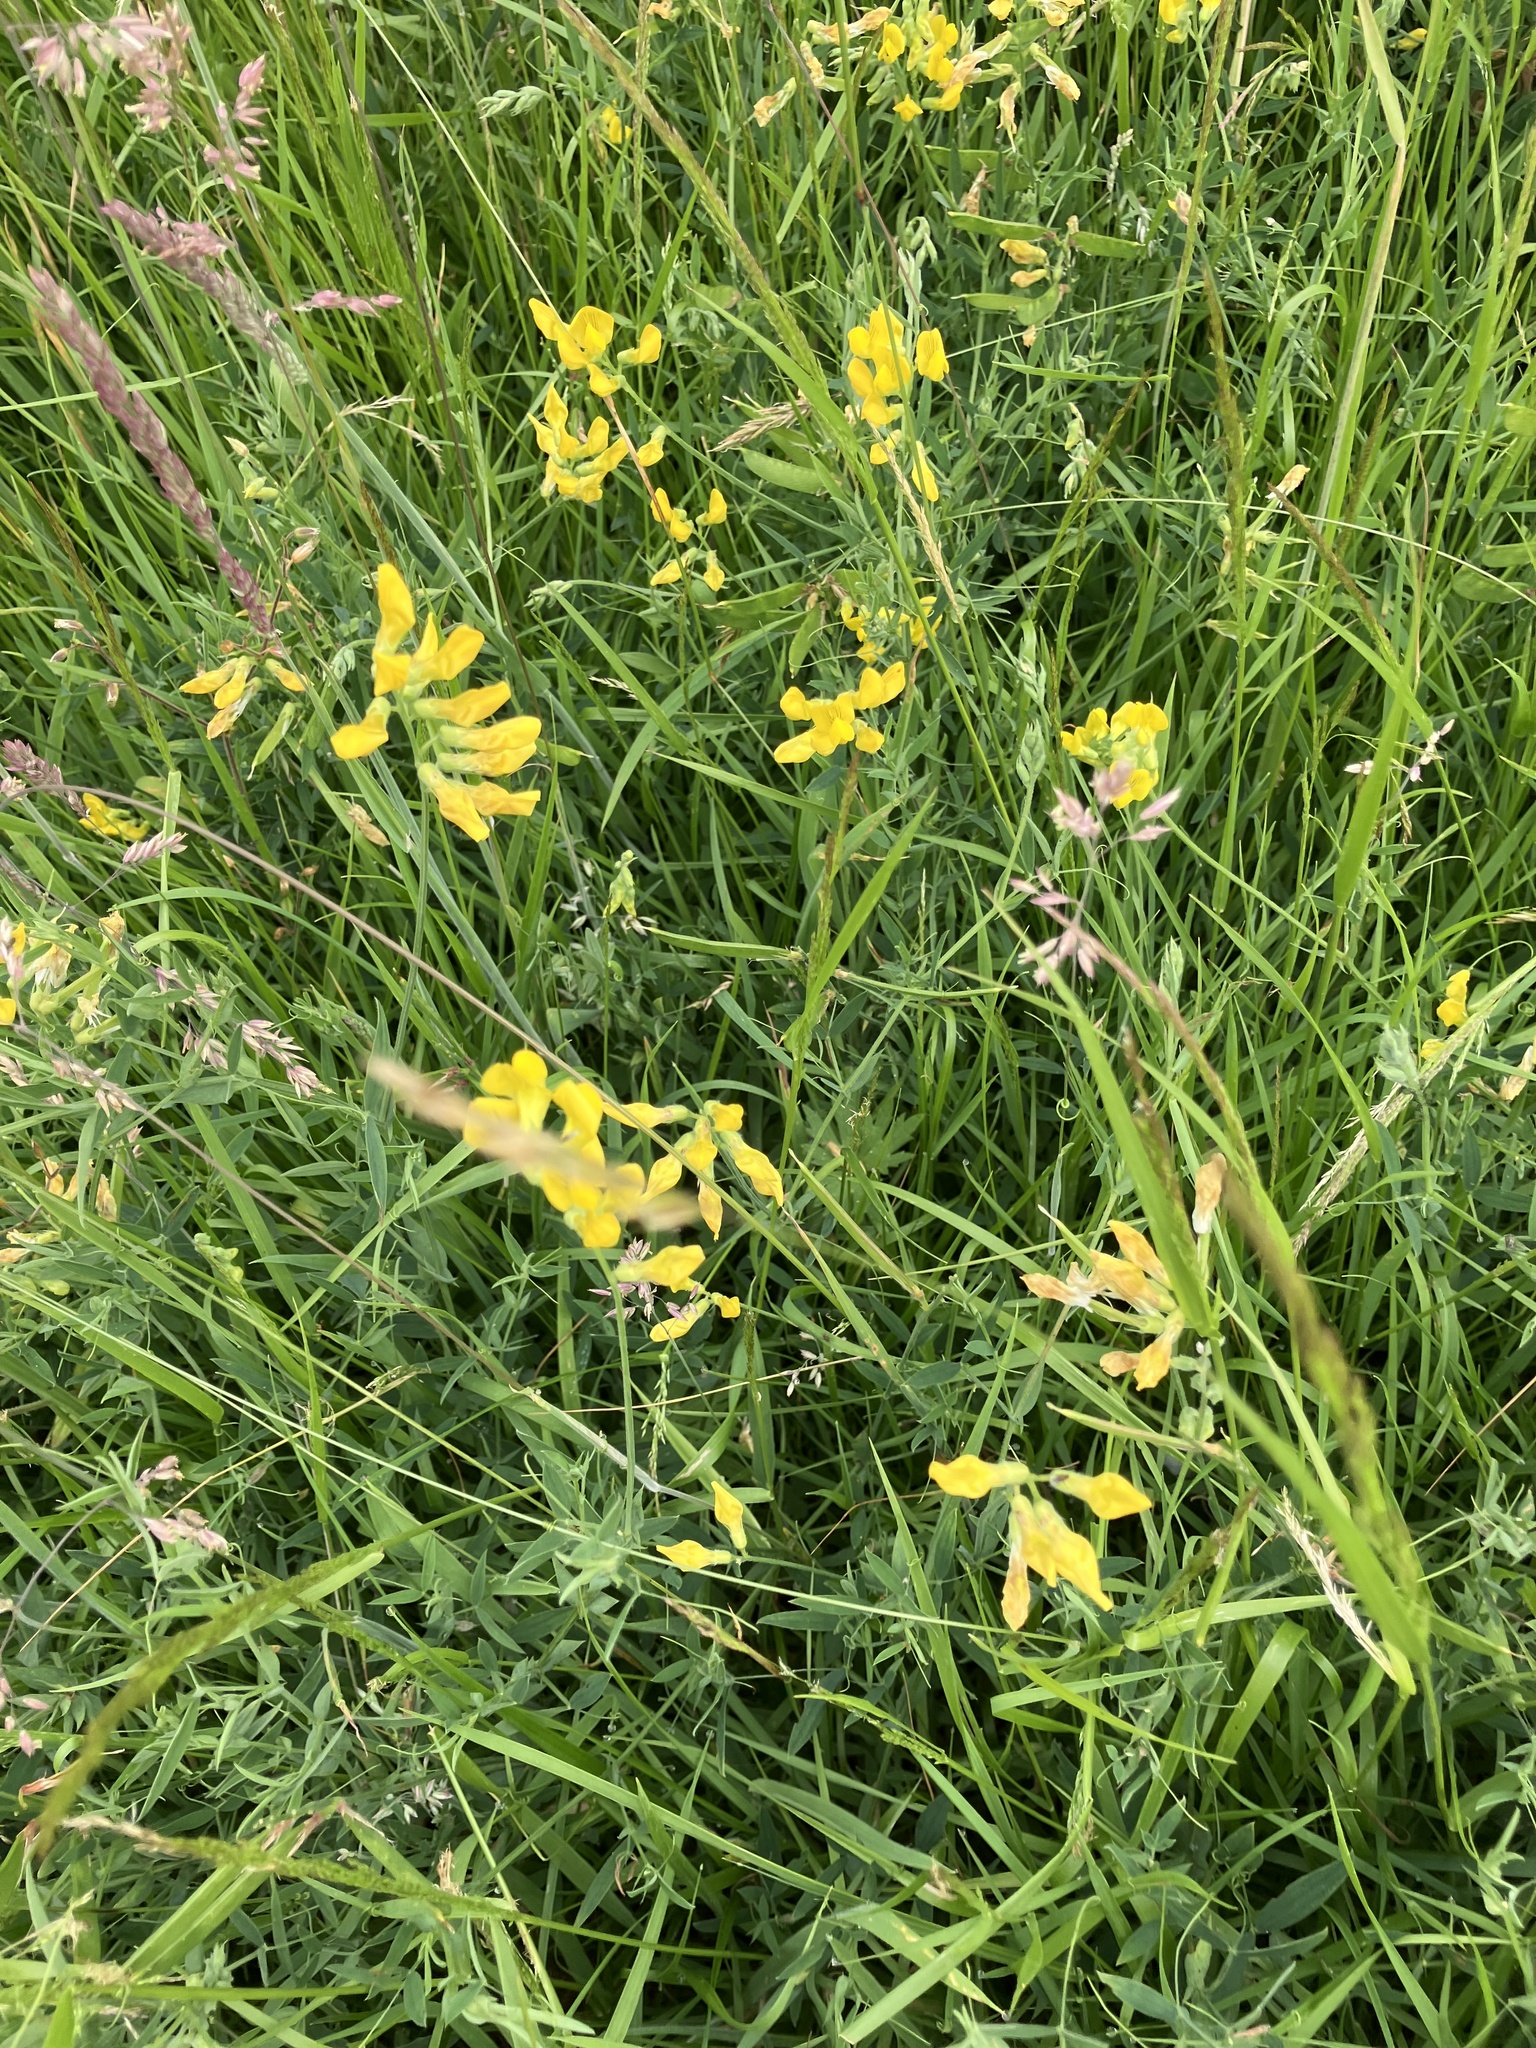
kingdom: Plantae
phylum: Tracheophyta
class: Magnoliopsida
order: Fabales
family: Fabaceae
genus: Lathyrus
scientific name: Lathyrus pratensis
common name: Meadow vetchling
